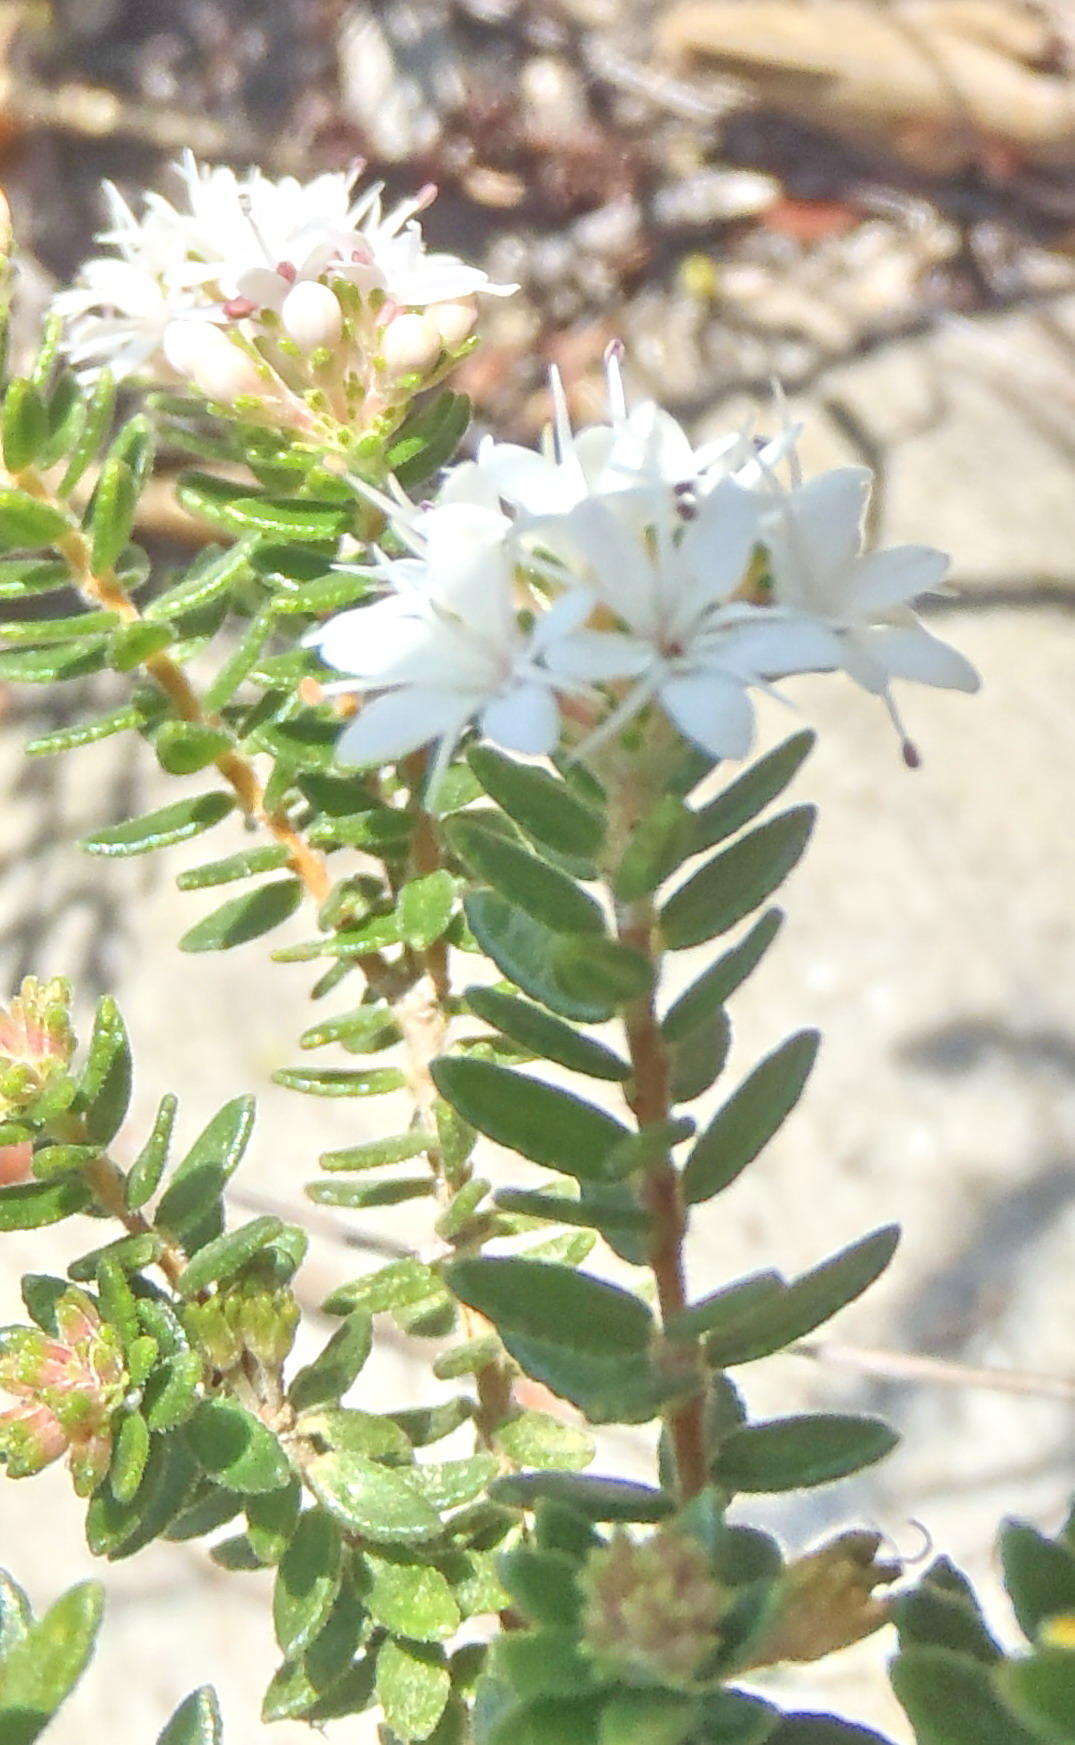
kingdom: Plantae
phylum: Tracheophyta
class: Magnoliopsida
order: Sapindales
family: Rutaceae
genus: Agathosma
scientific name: Agathosma planifolia
